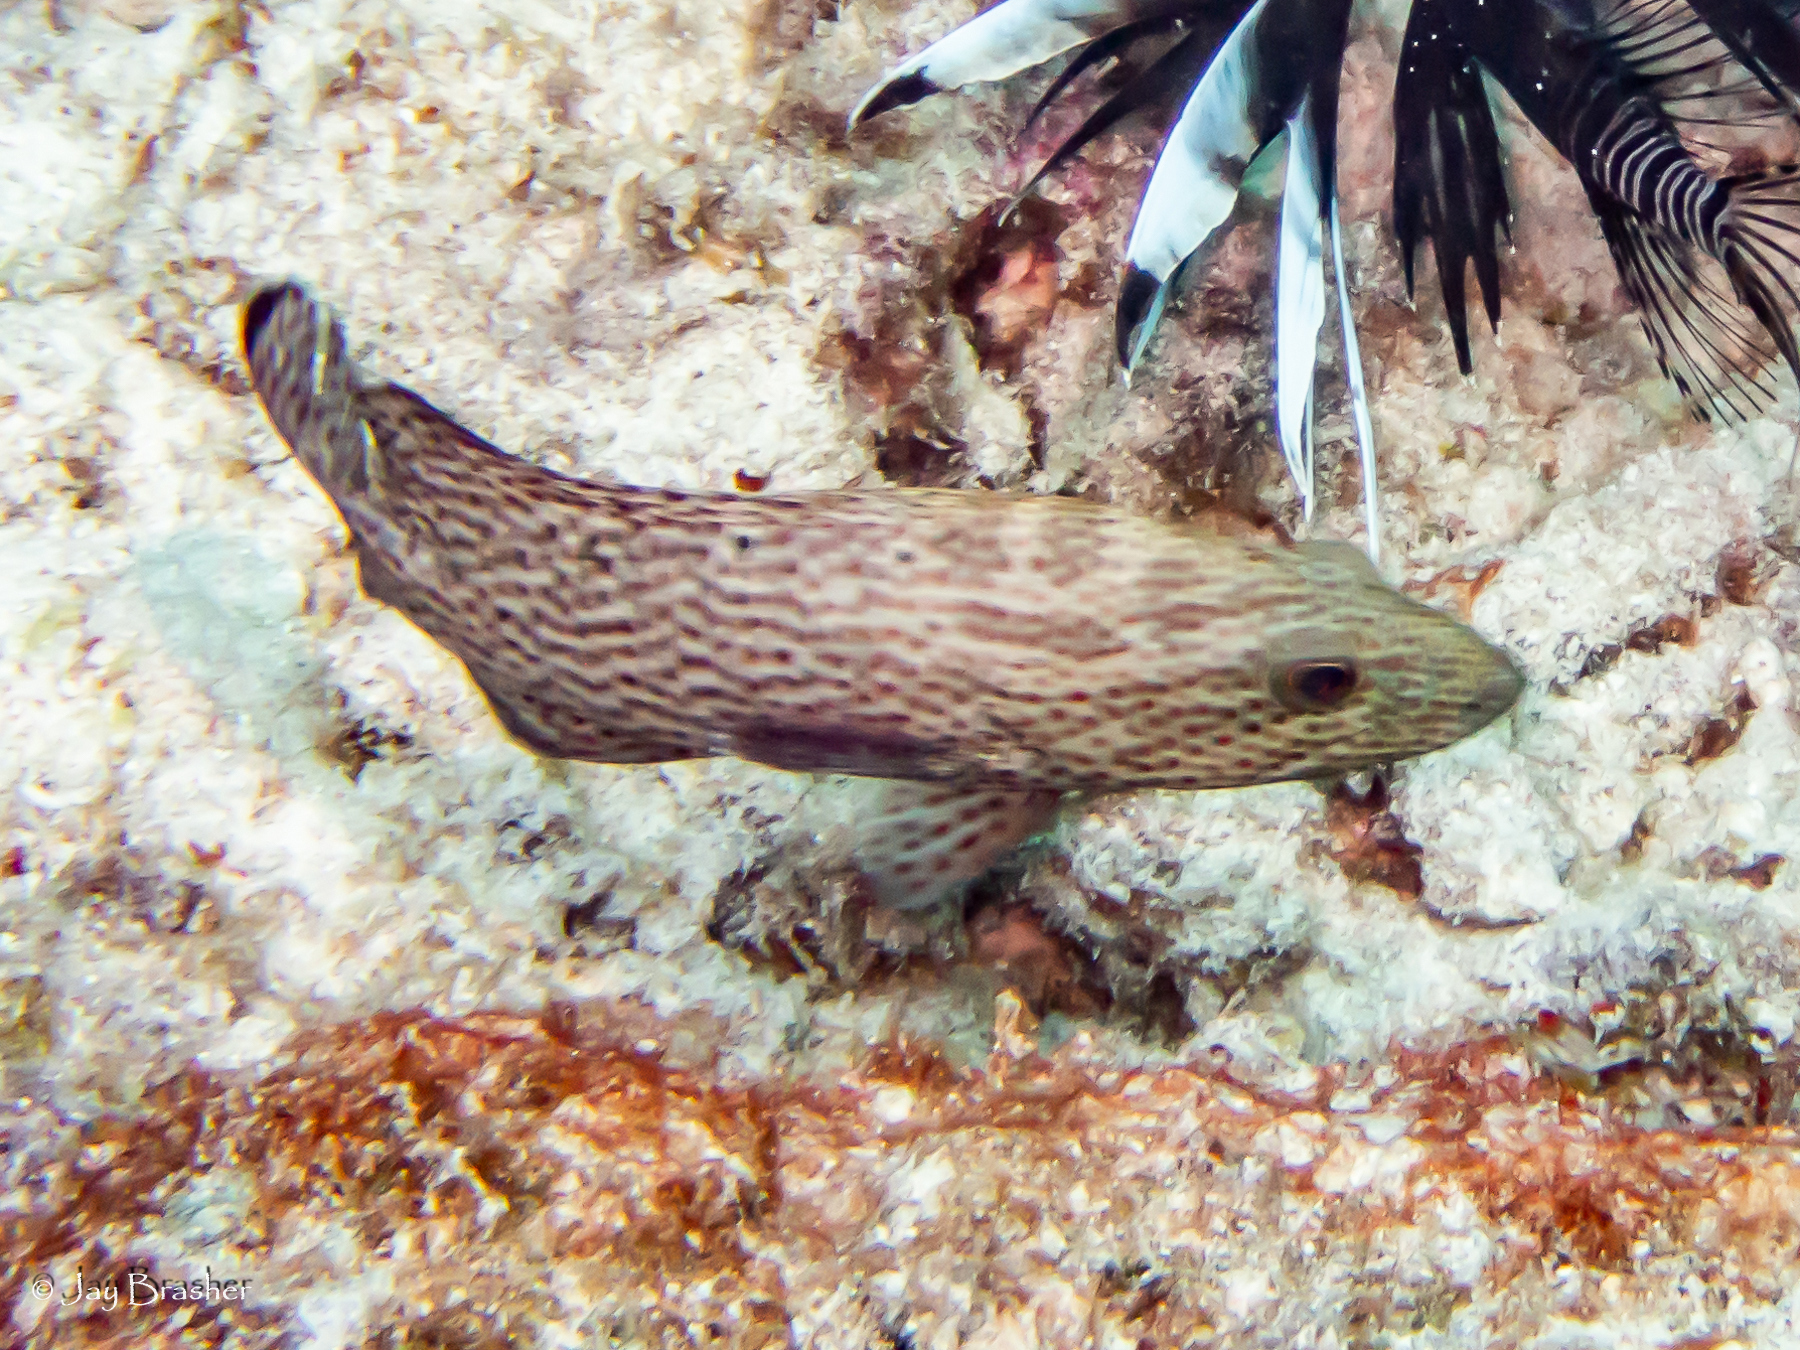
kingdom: Animalia
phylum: Chordata
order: Perciformes
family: Serranidae
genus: Cephalopholis
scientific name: Cephalopholis cruentata
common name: Graysby
